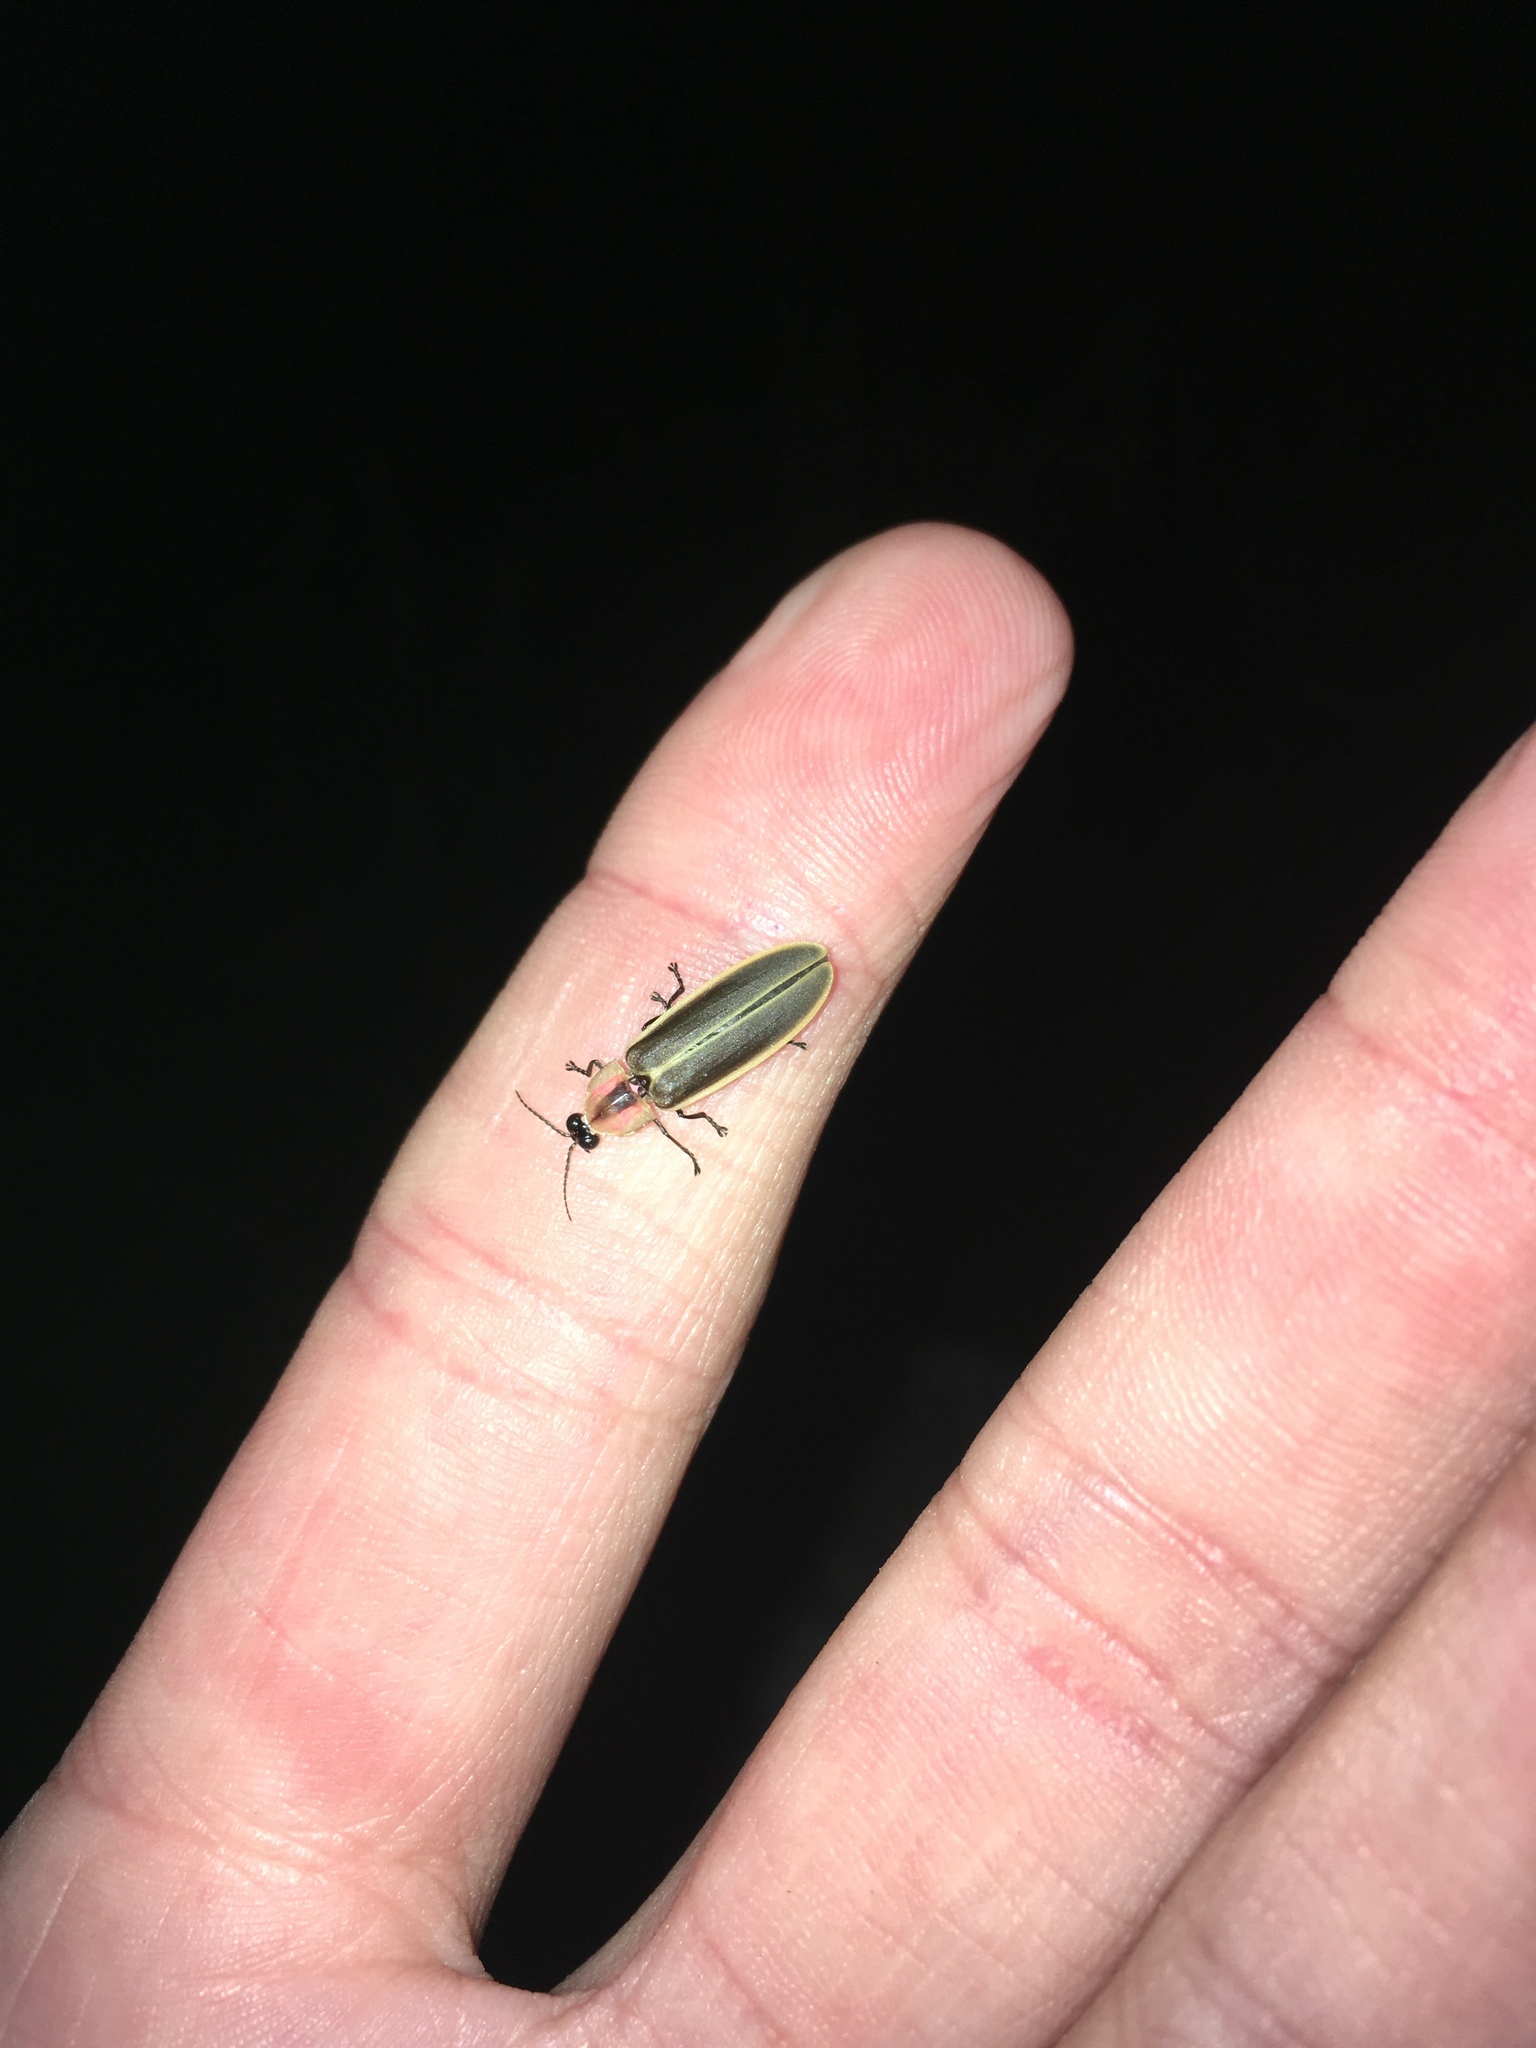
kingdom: Animalia
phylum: Arthropoda
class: Insecta
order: Coleoptera
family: Lampyridae
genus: Pyractomena
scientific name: Pyractomena
